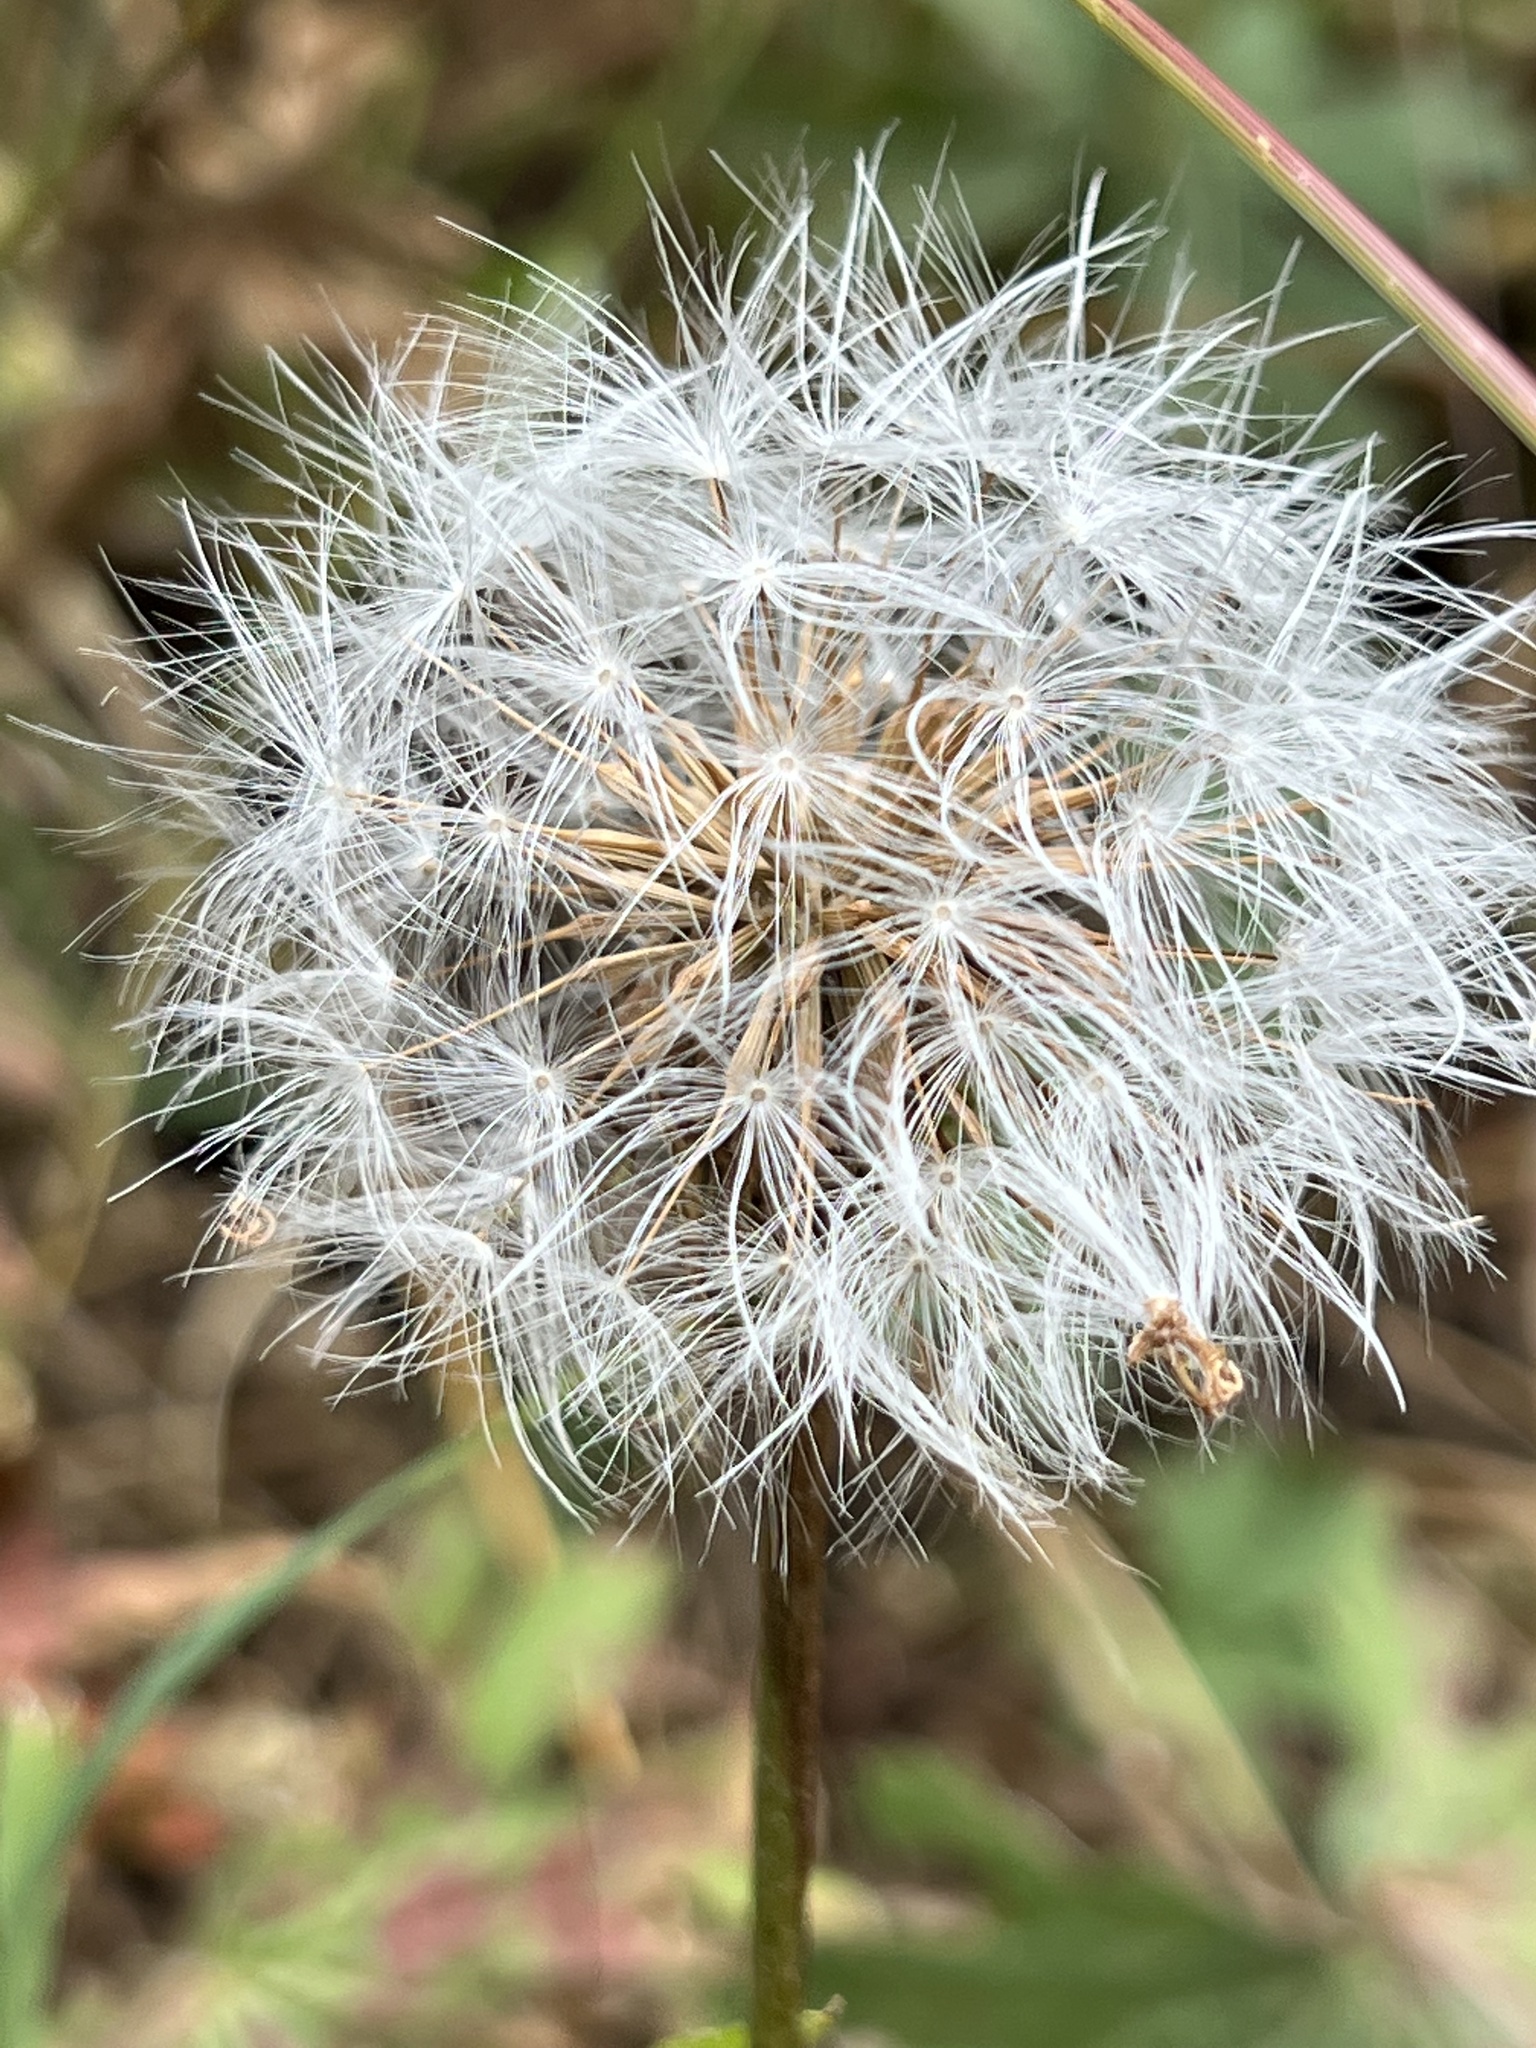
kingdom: Plantae
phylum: Tracheophyta
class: Magnoliopsida
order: Asterales
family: Asteraceae
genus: Agoseris
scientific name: Agoseris aurantiaca
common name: Mountain agoseris
